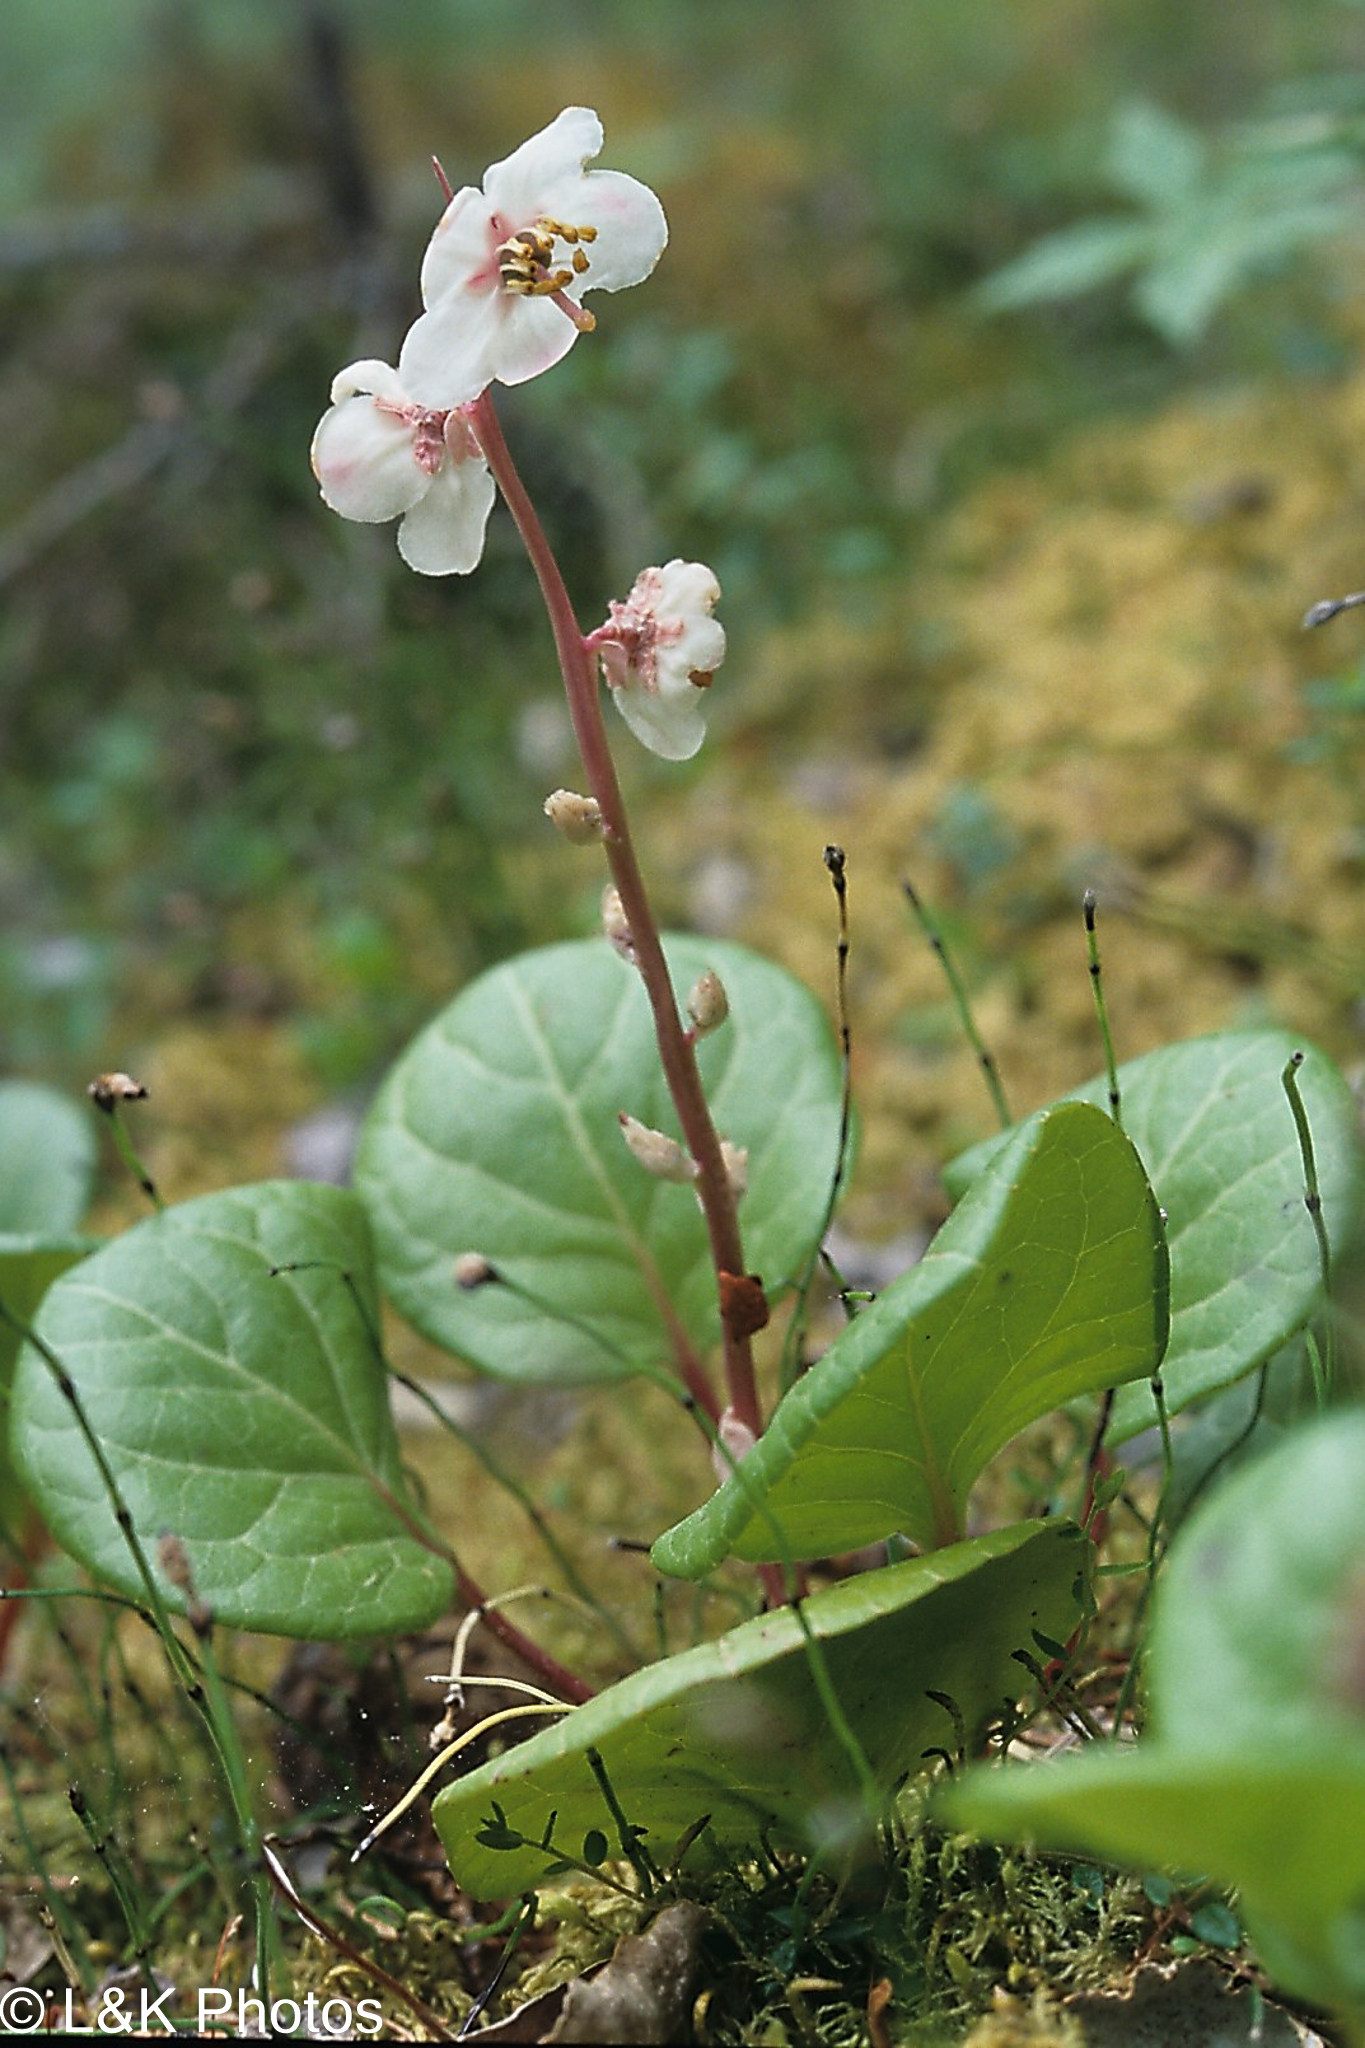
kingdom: Plantae
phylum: Tracheophyta
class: Magnoliopsida
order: Ericales
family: Ericaceae
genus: Pyrola
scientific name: Pyrola grandiflora
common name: Arctic pyrola
